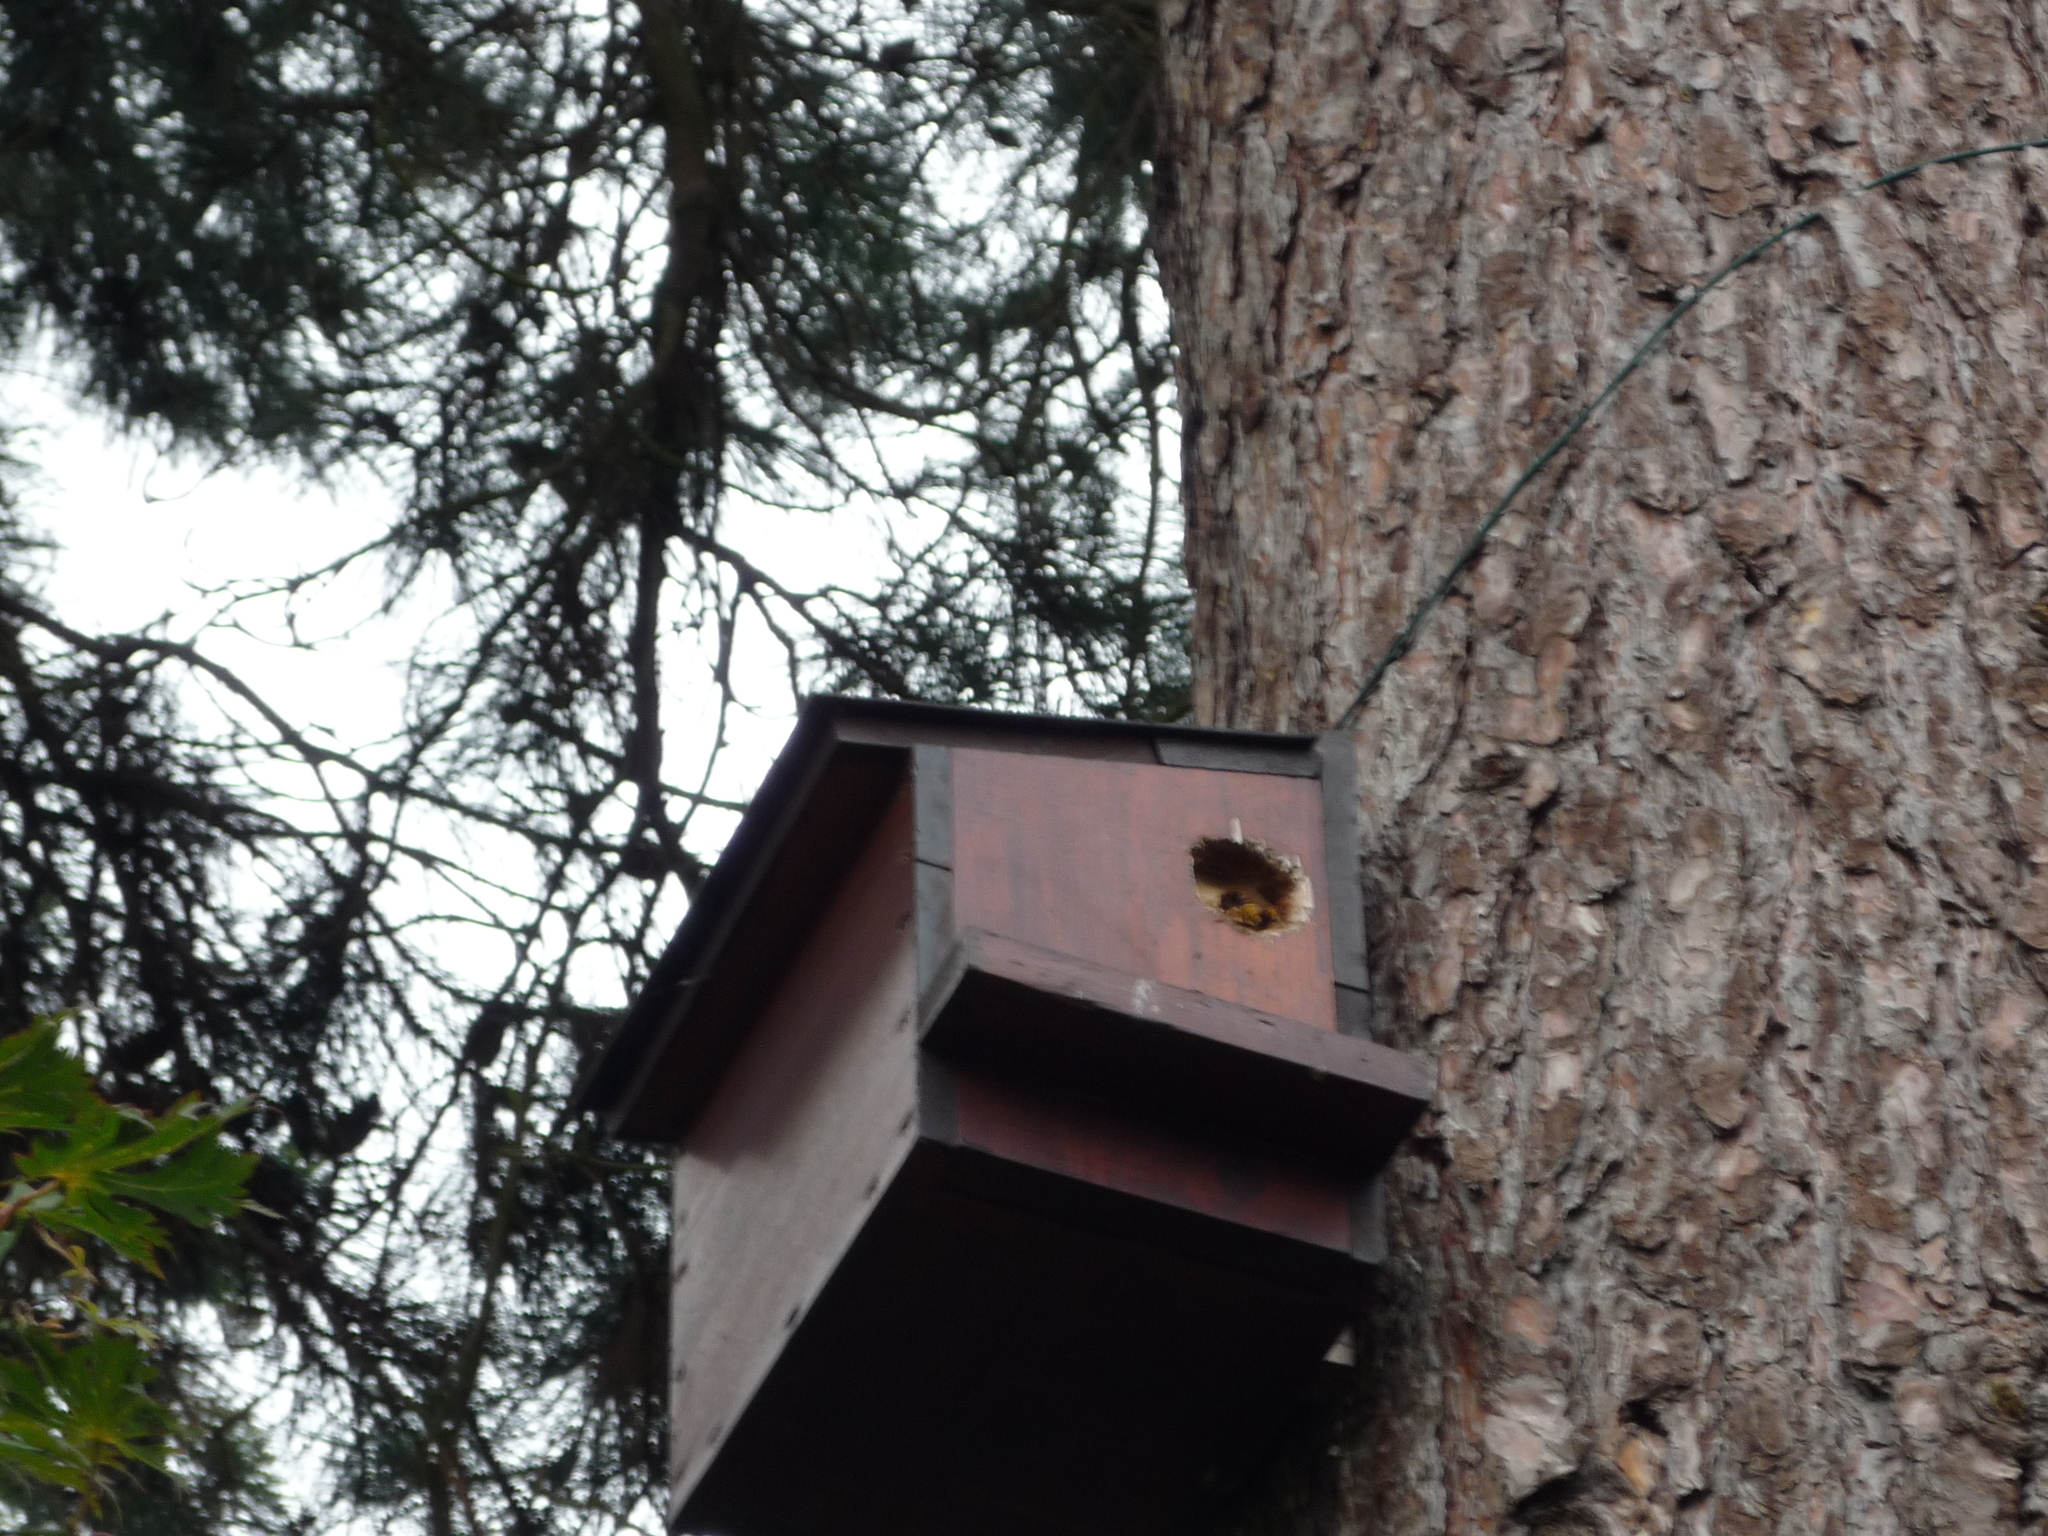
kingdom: Animalia
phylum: Arthropoda
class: Insecta
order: Hymenoptera
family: Vespidae
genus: Vespa
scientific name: Vespa crabro
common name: Hornet
